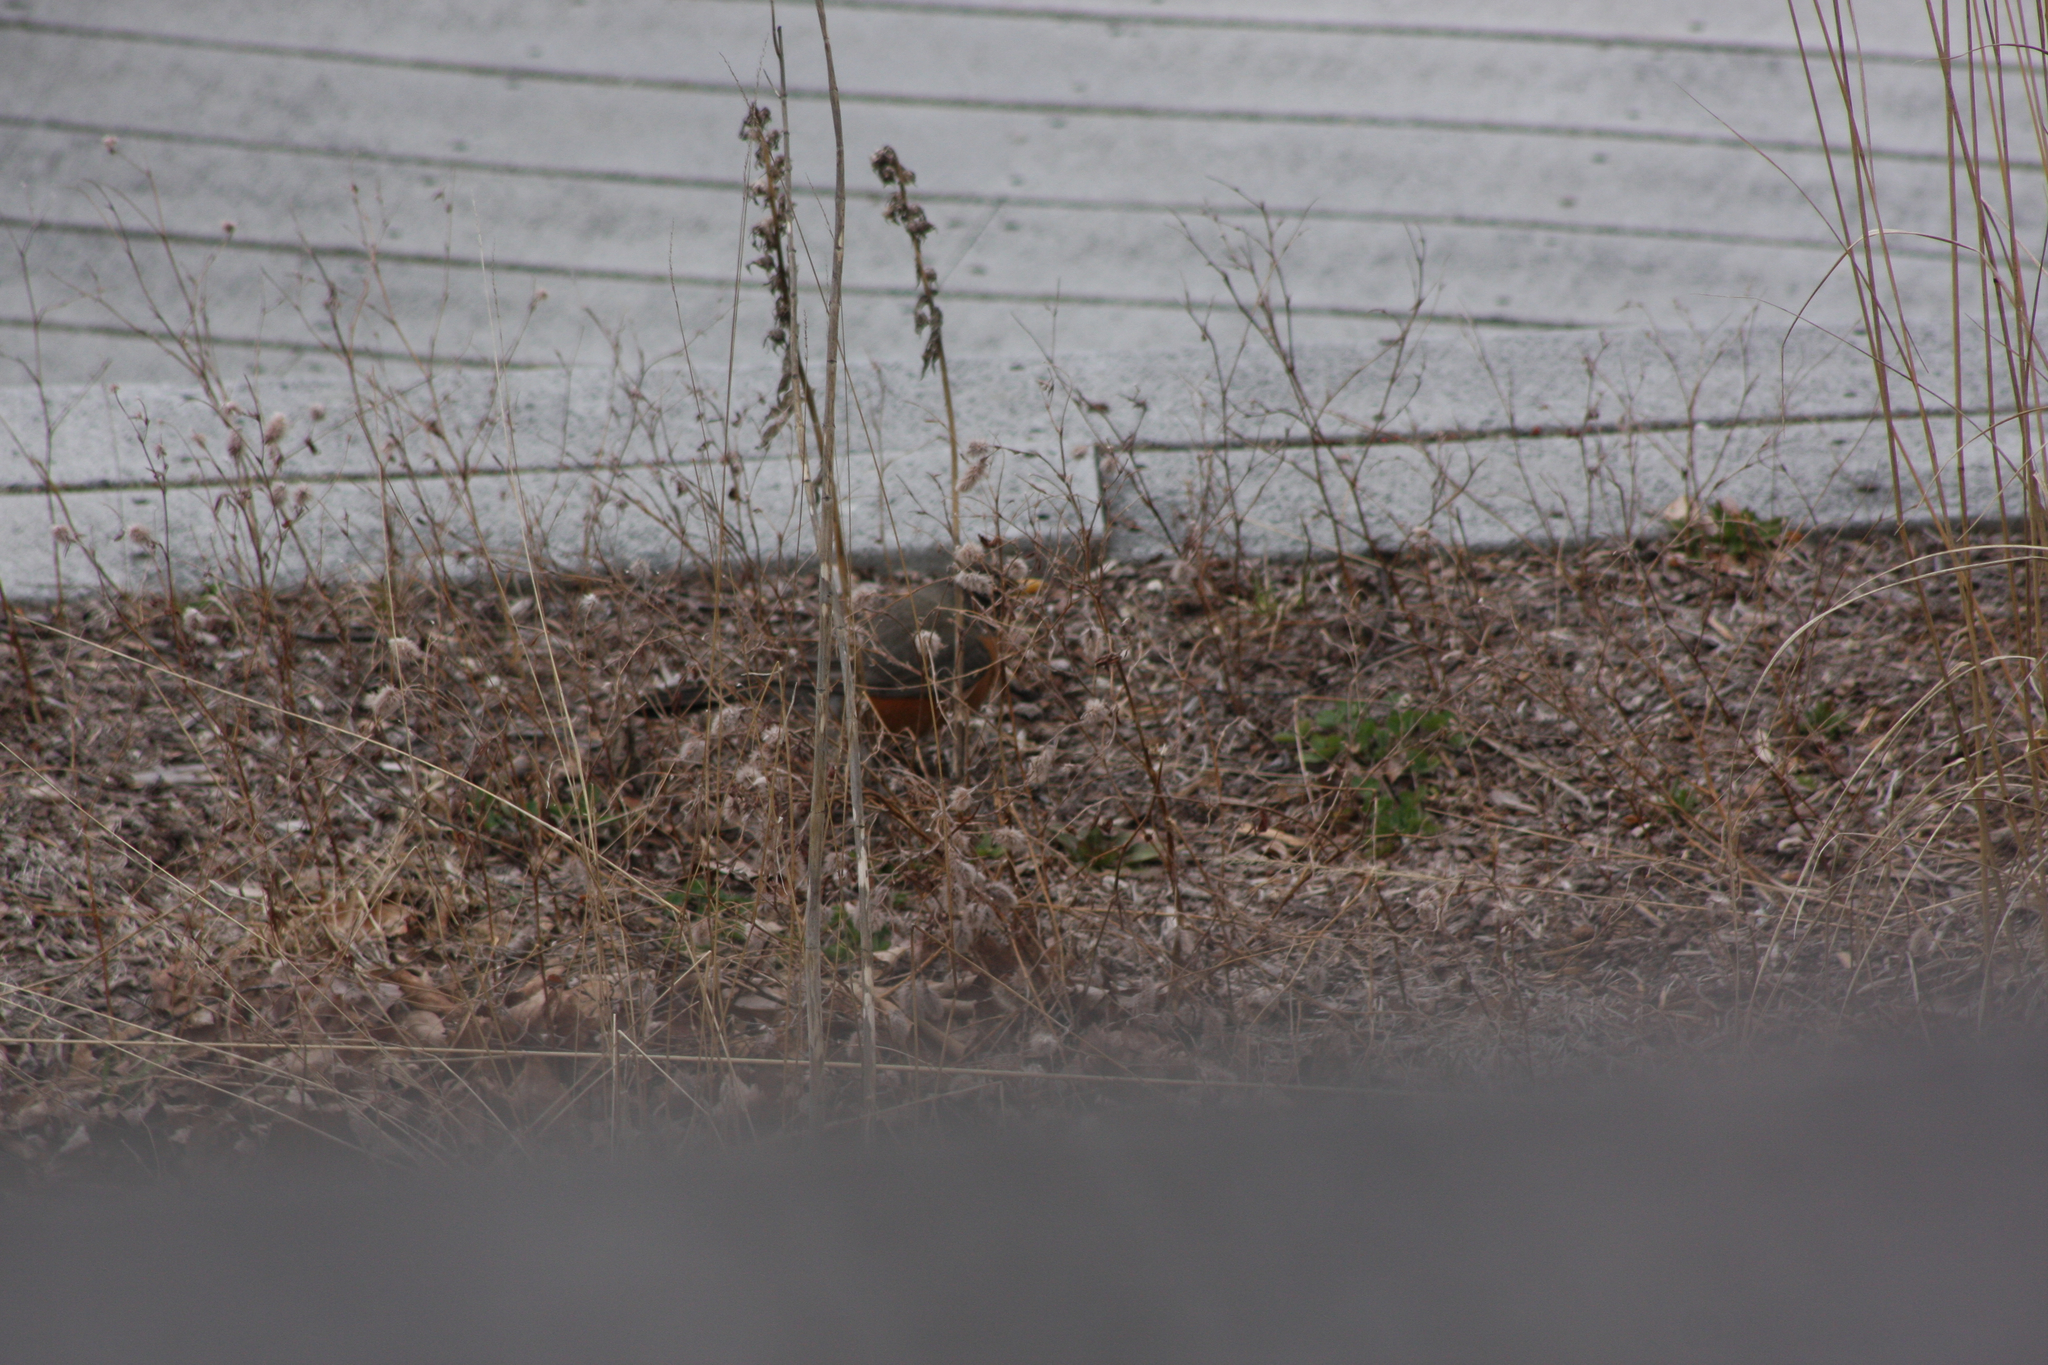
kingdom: Animalia
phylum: Chordata
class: Aves
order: Passeriformes
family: Turdidae
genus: Turdus
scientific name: Turdus migratorius
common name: American robin
